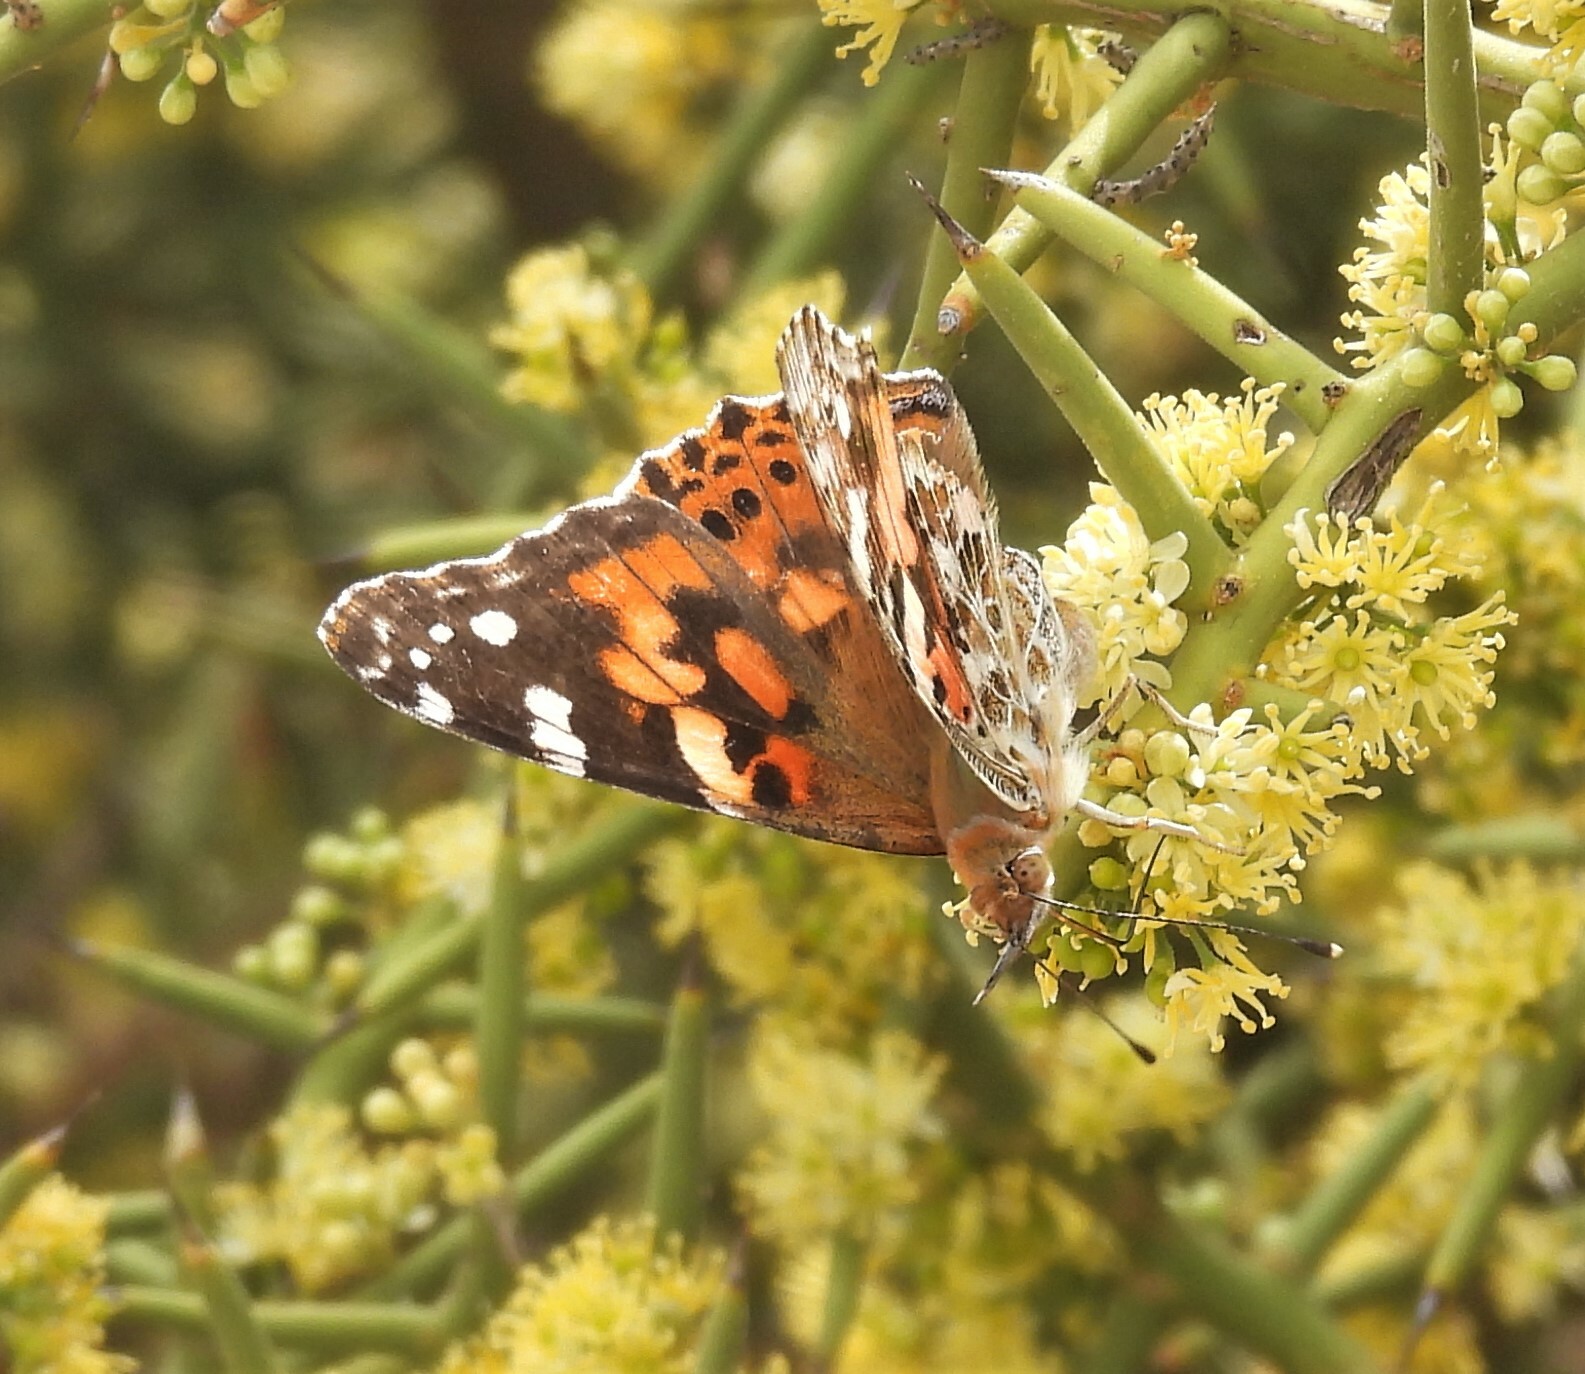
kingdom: Animalia
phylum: Arthropoda
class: Insecta
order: Lepidoptera
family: Nymphalidae
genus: Vanessa
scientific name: Vanessa cardui
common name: Painted lady
